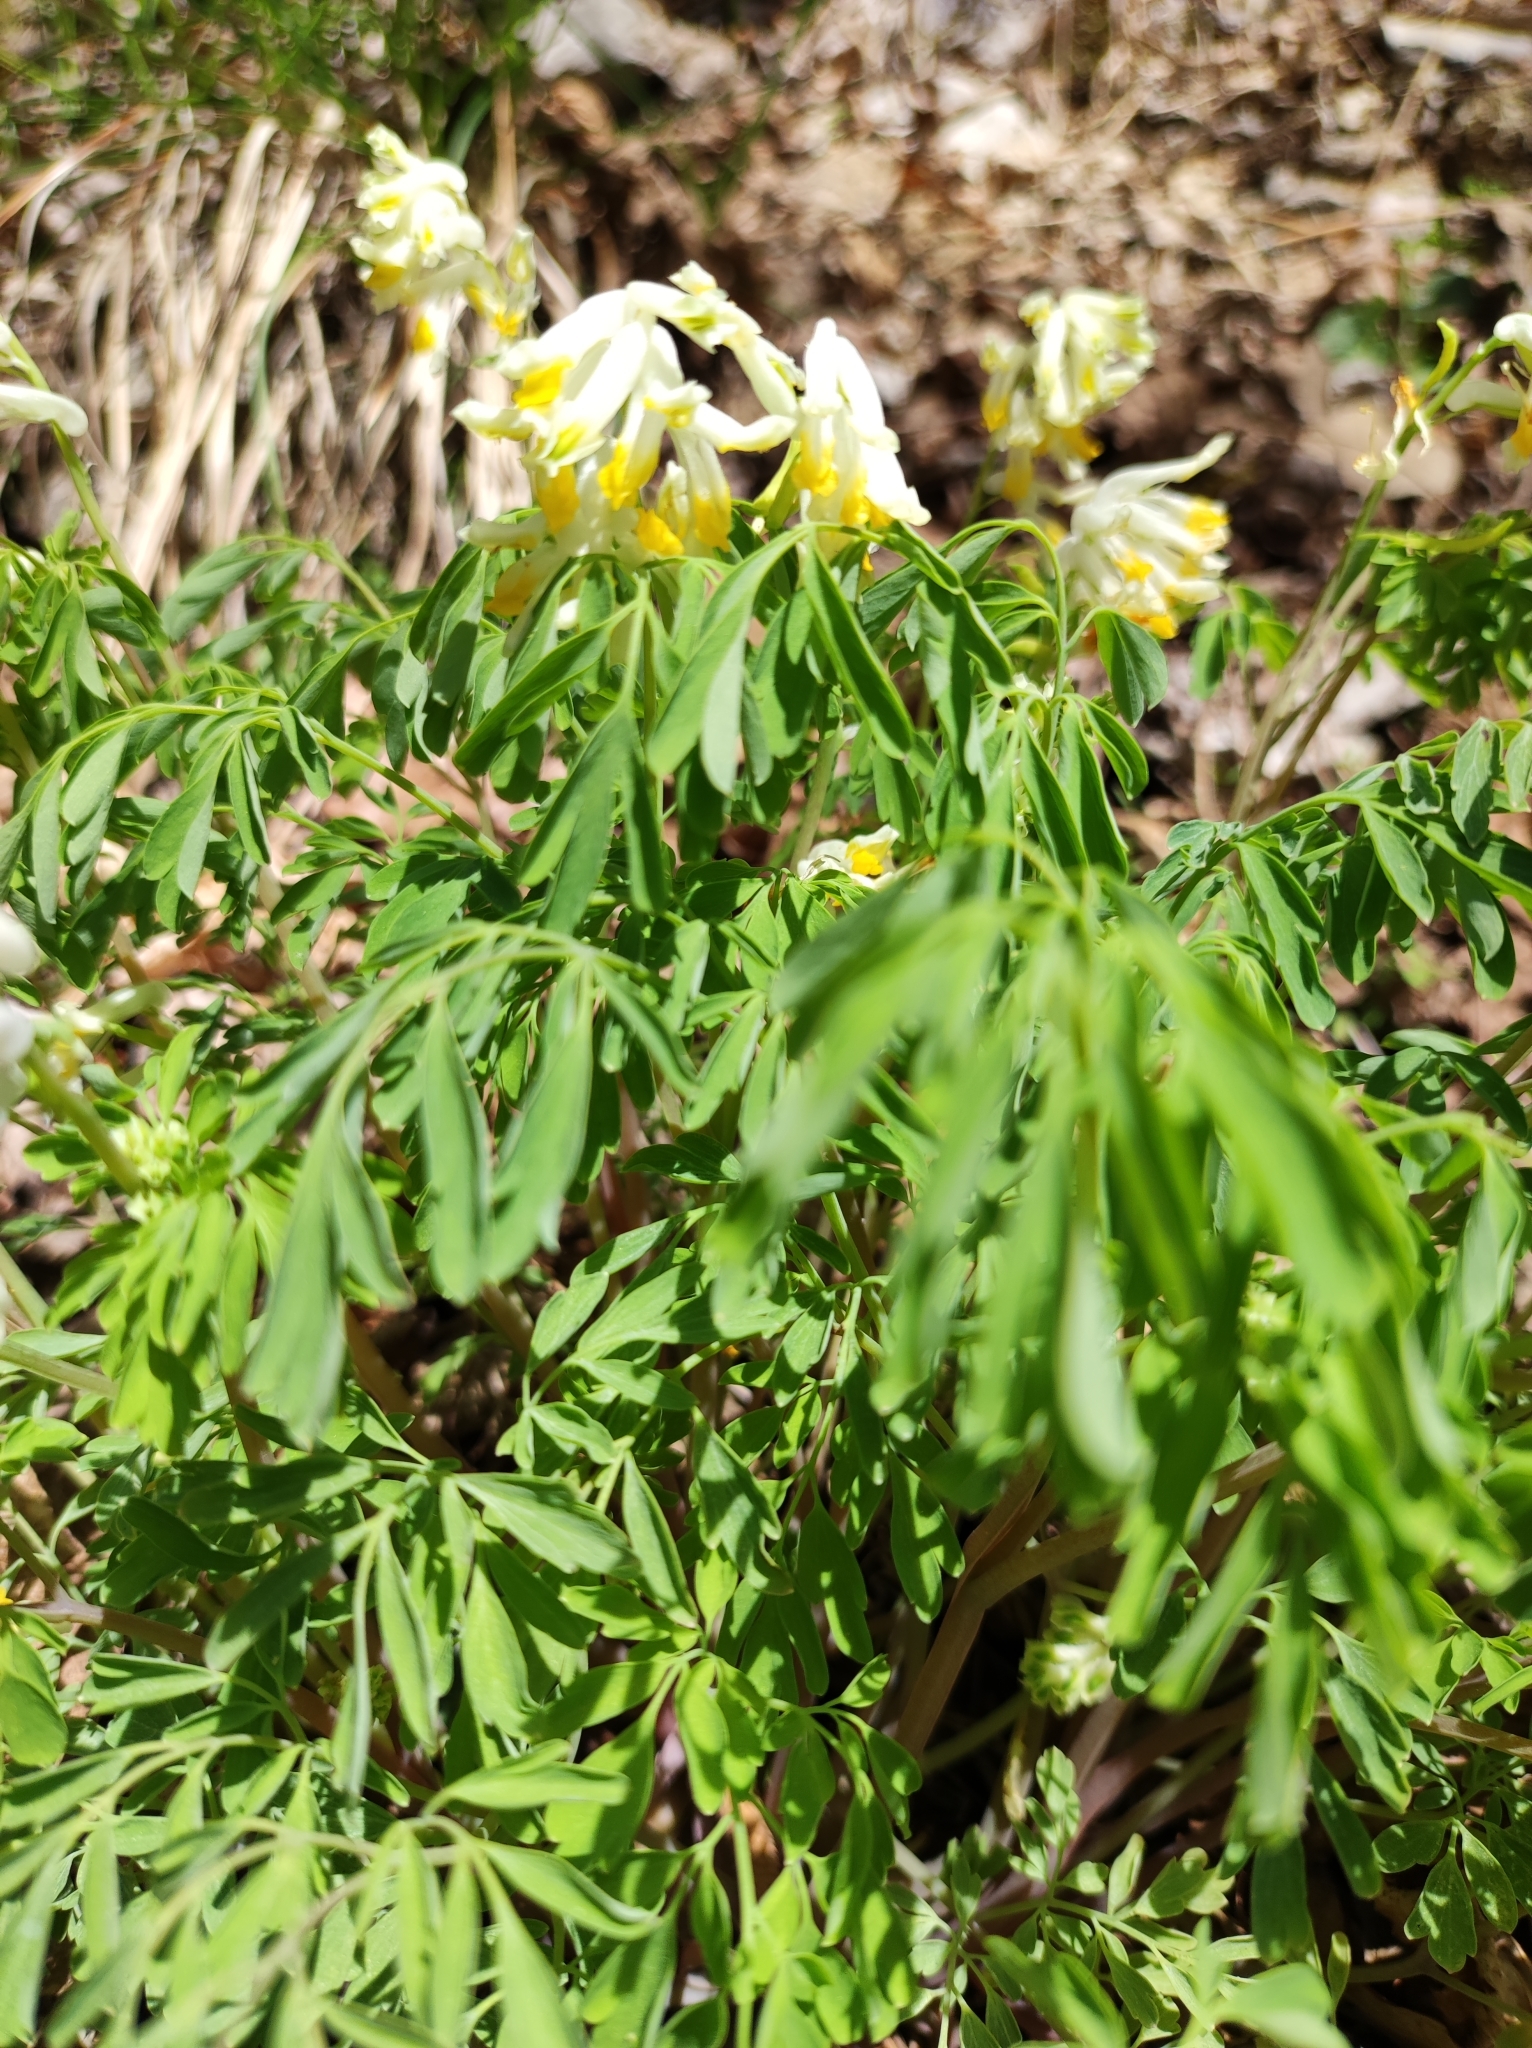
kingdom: Plantae
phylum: Tracheophyta
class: Magnoliopsida
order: Ranunculales
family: Papaveraceae
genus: Pseudofumaria
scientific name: Pseudofumaria alba
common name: Pale corydalis
